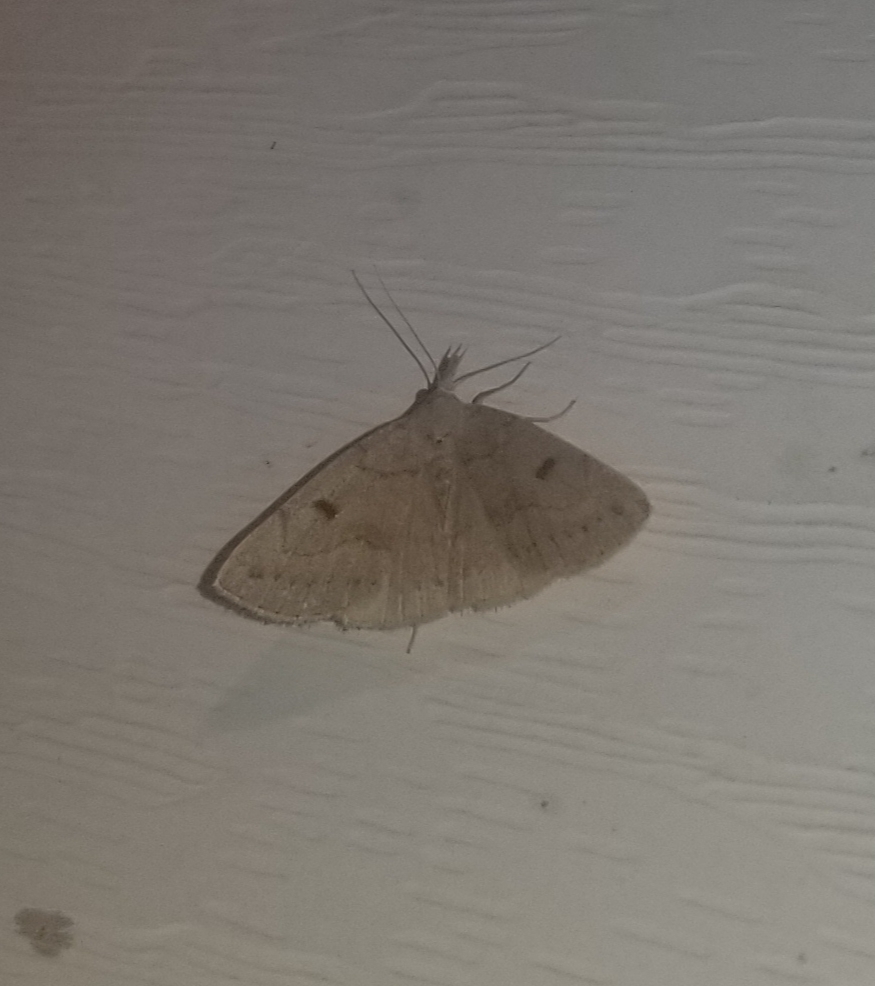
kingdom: Animalia
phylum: Arthropoda
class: Insecta
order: Lepidoptera
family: Erebidae
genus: Macrochilo
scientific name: Macrochilo morbidalis
